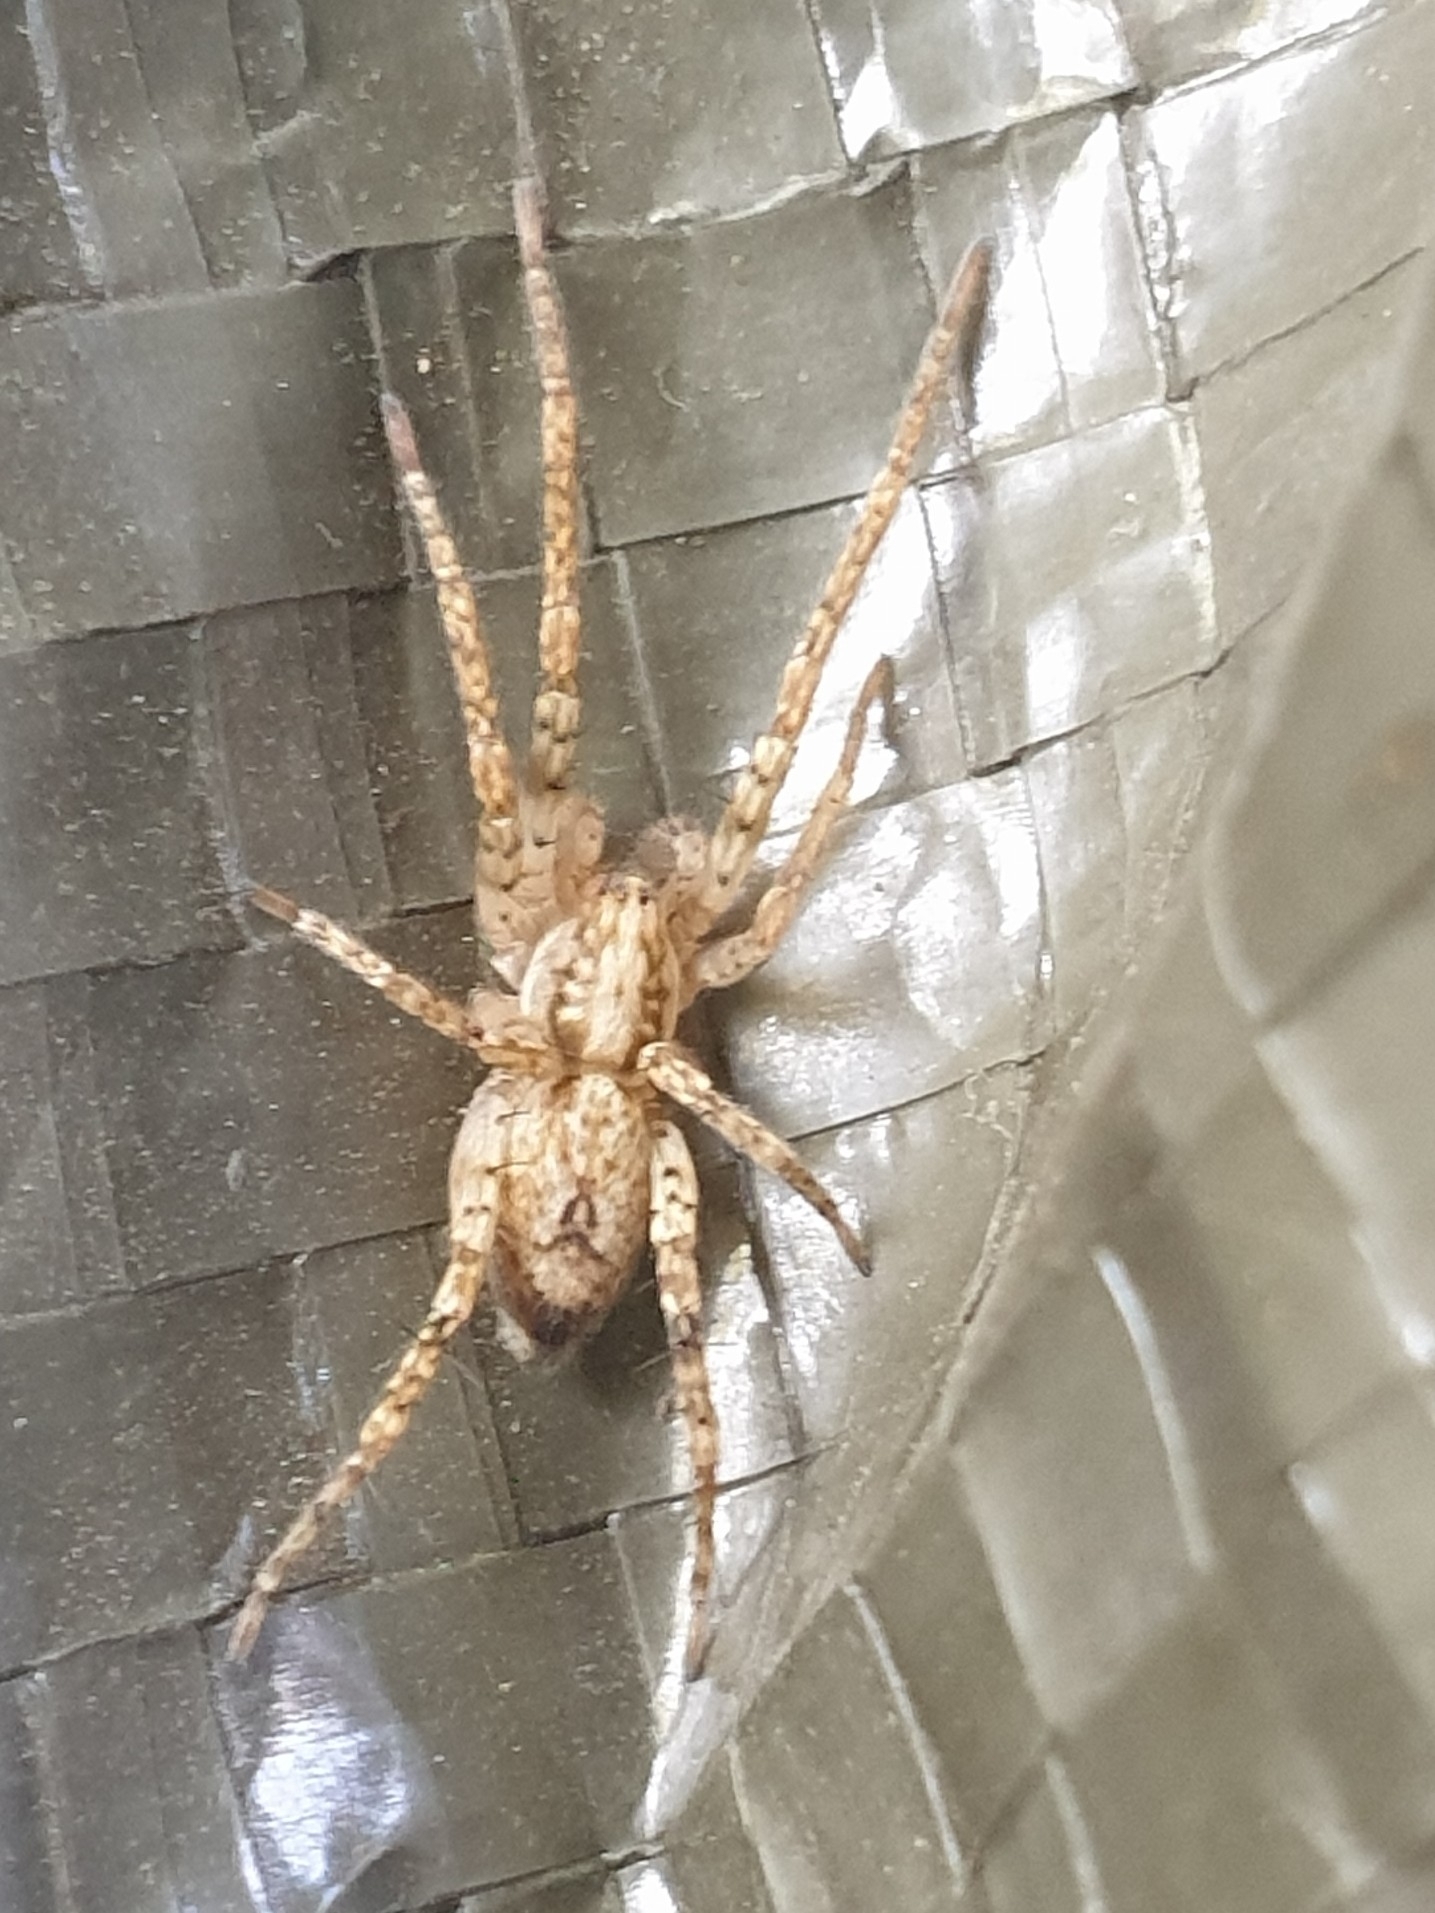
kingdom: Animalia
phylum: Arthropoda
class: Arachnida
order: Araneae
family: Anyphaenidae
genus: Anyphaena
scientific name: Anyphaena accentuata
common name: Buzzing spider
